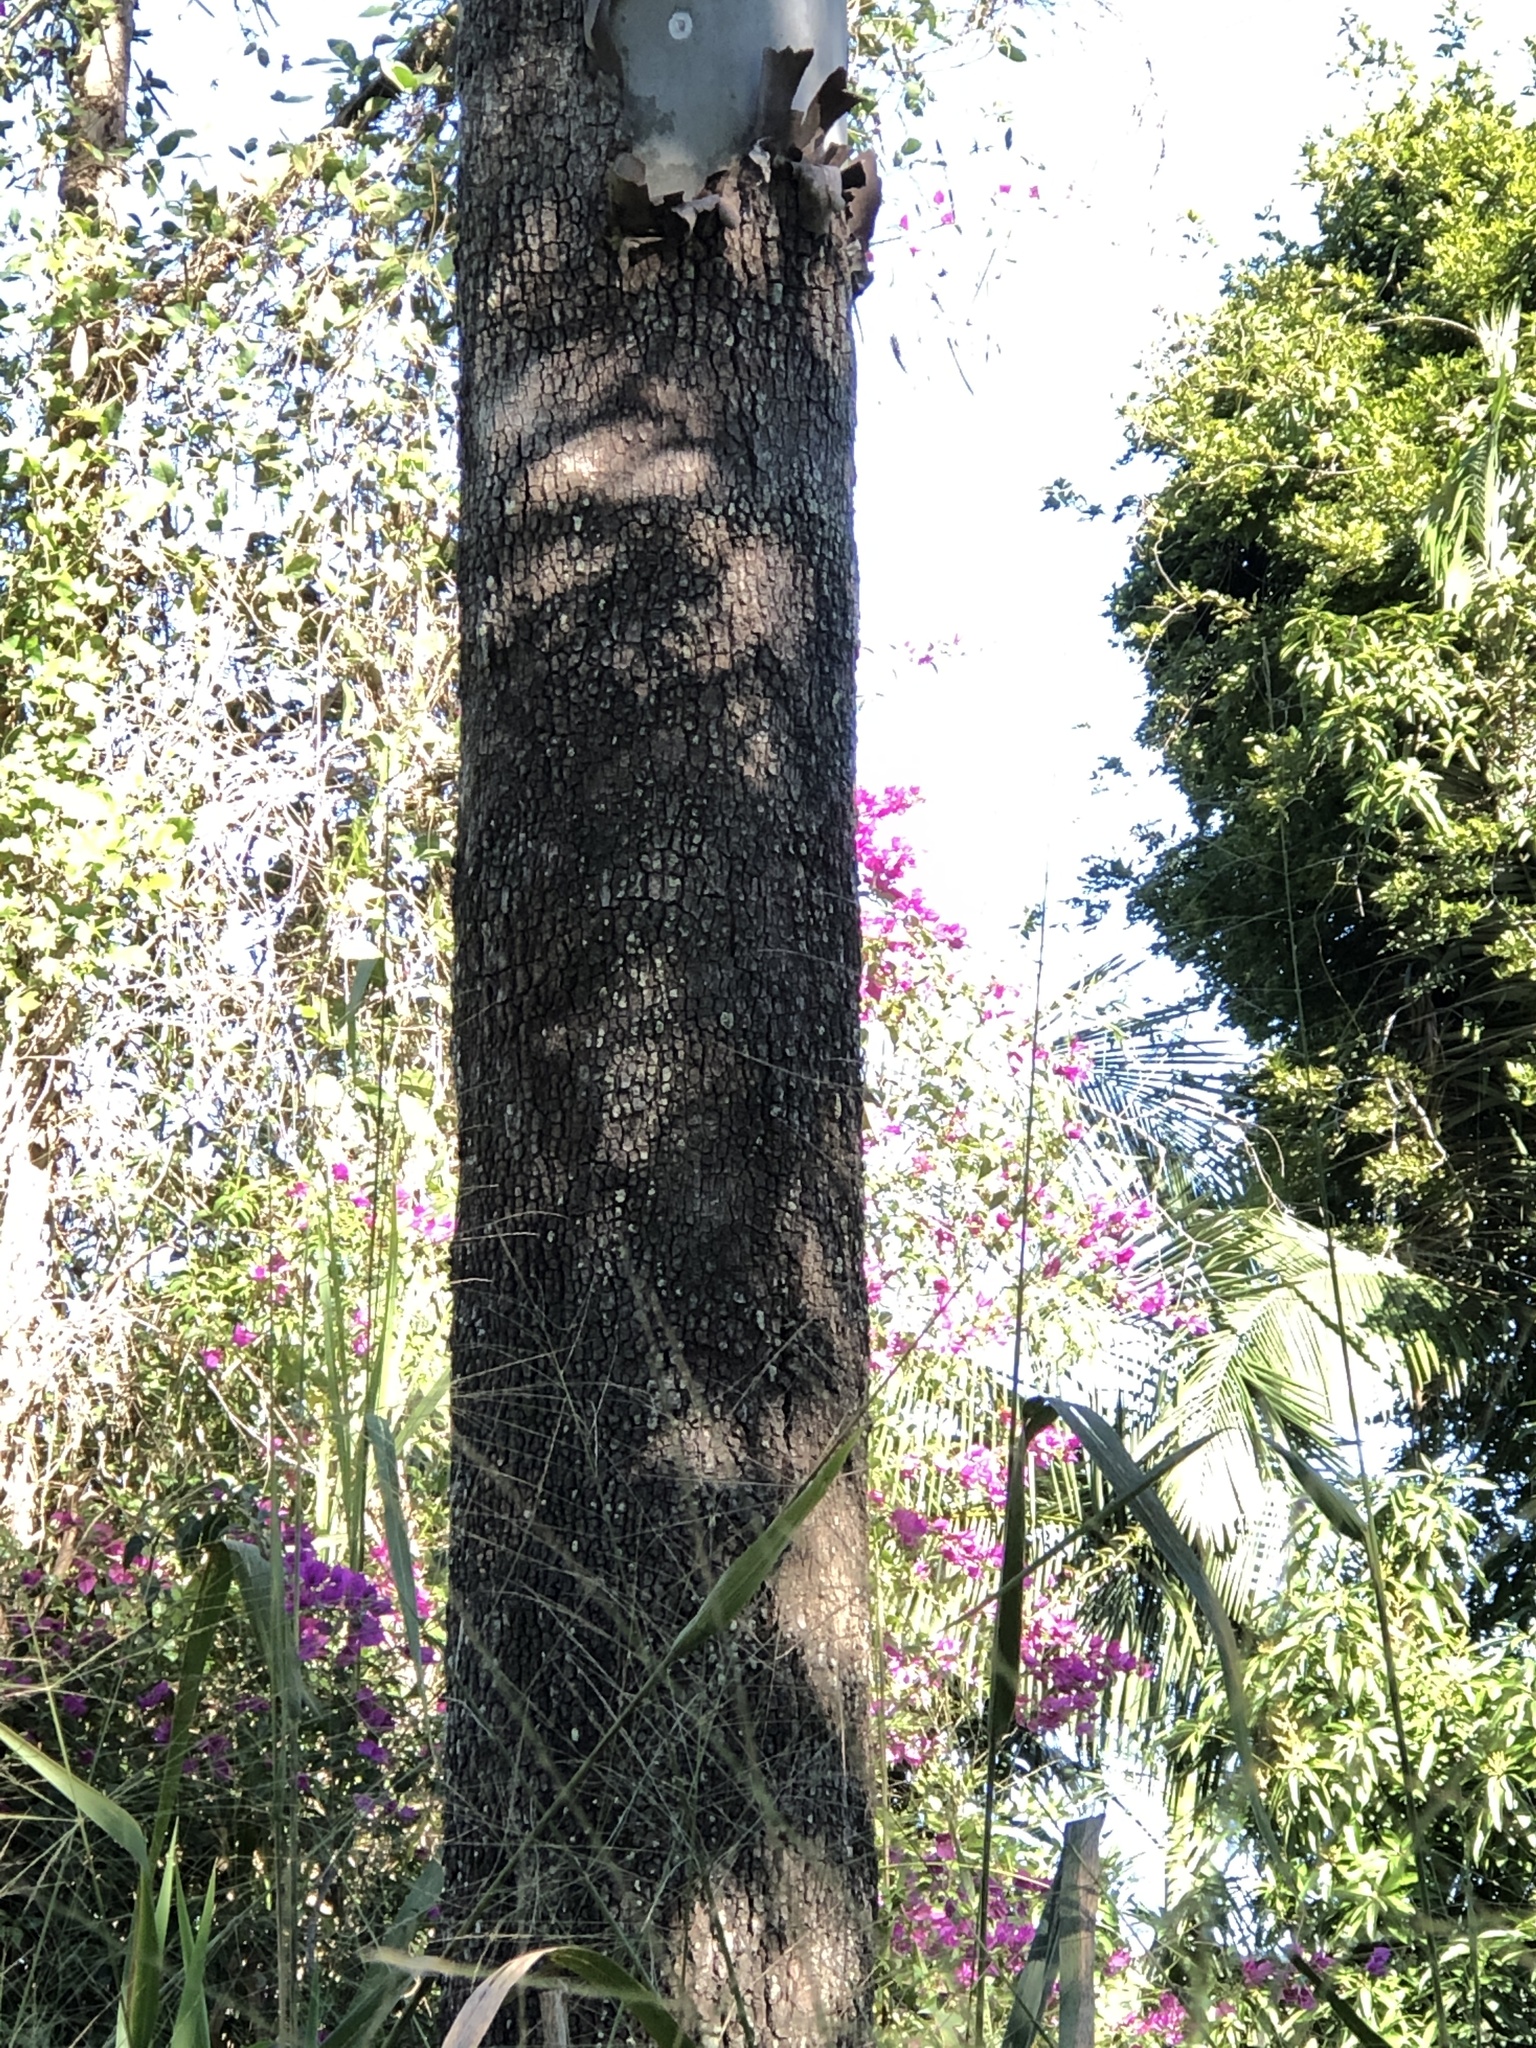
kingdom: Plantae
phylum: Tracheophyta
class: Magnoliopsida
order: Myrtales
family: Myrtaceae
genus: Corymbia
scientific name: Corymbia tessellaris
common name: Carbeen
